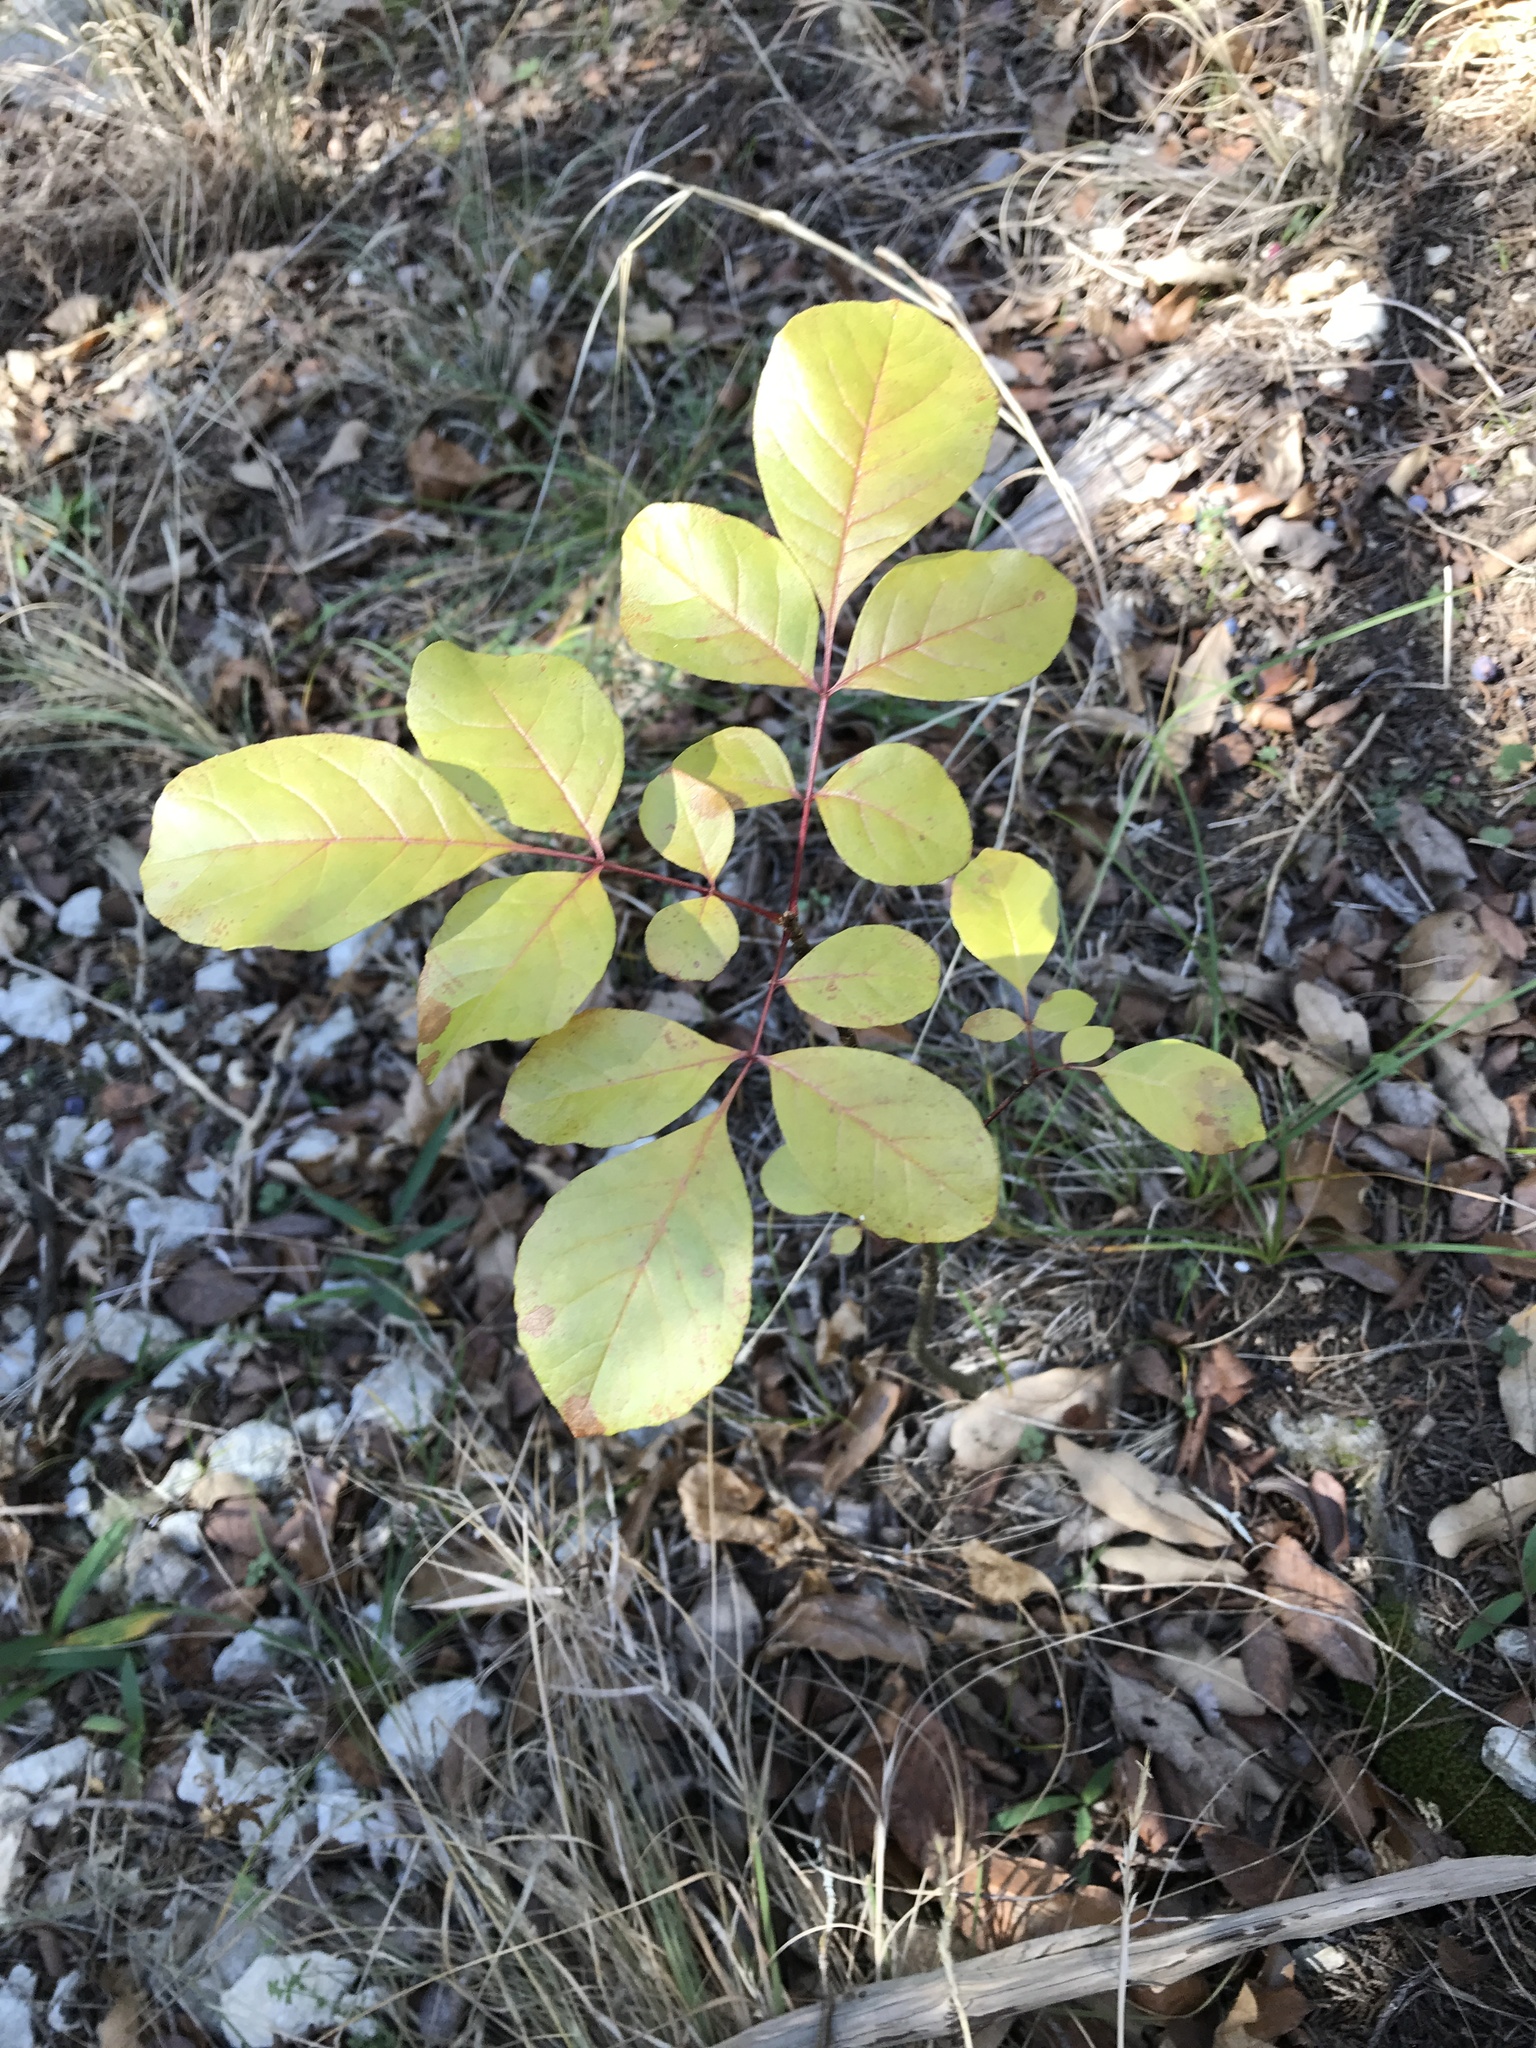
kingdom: Plantae
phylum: Tracheophyta
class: Magnoliopsida
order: Lamiales
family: Oleaceae
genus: Fraxinus
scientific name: Fraxinus albicans
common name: Texas ash
